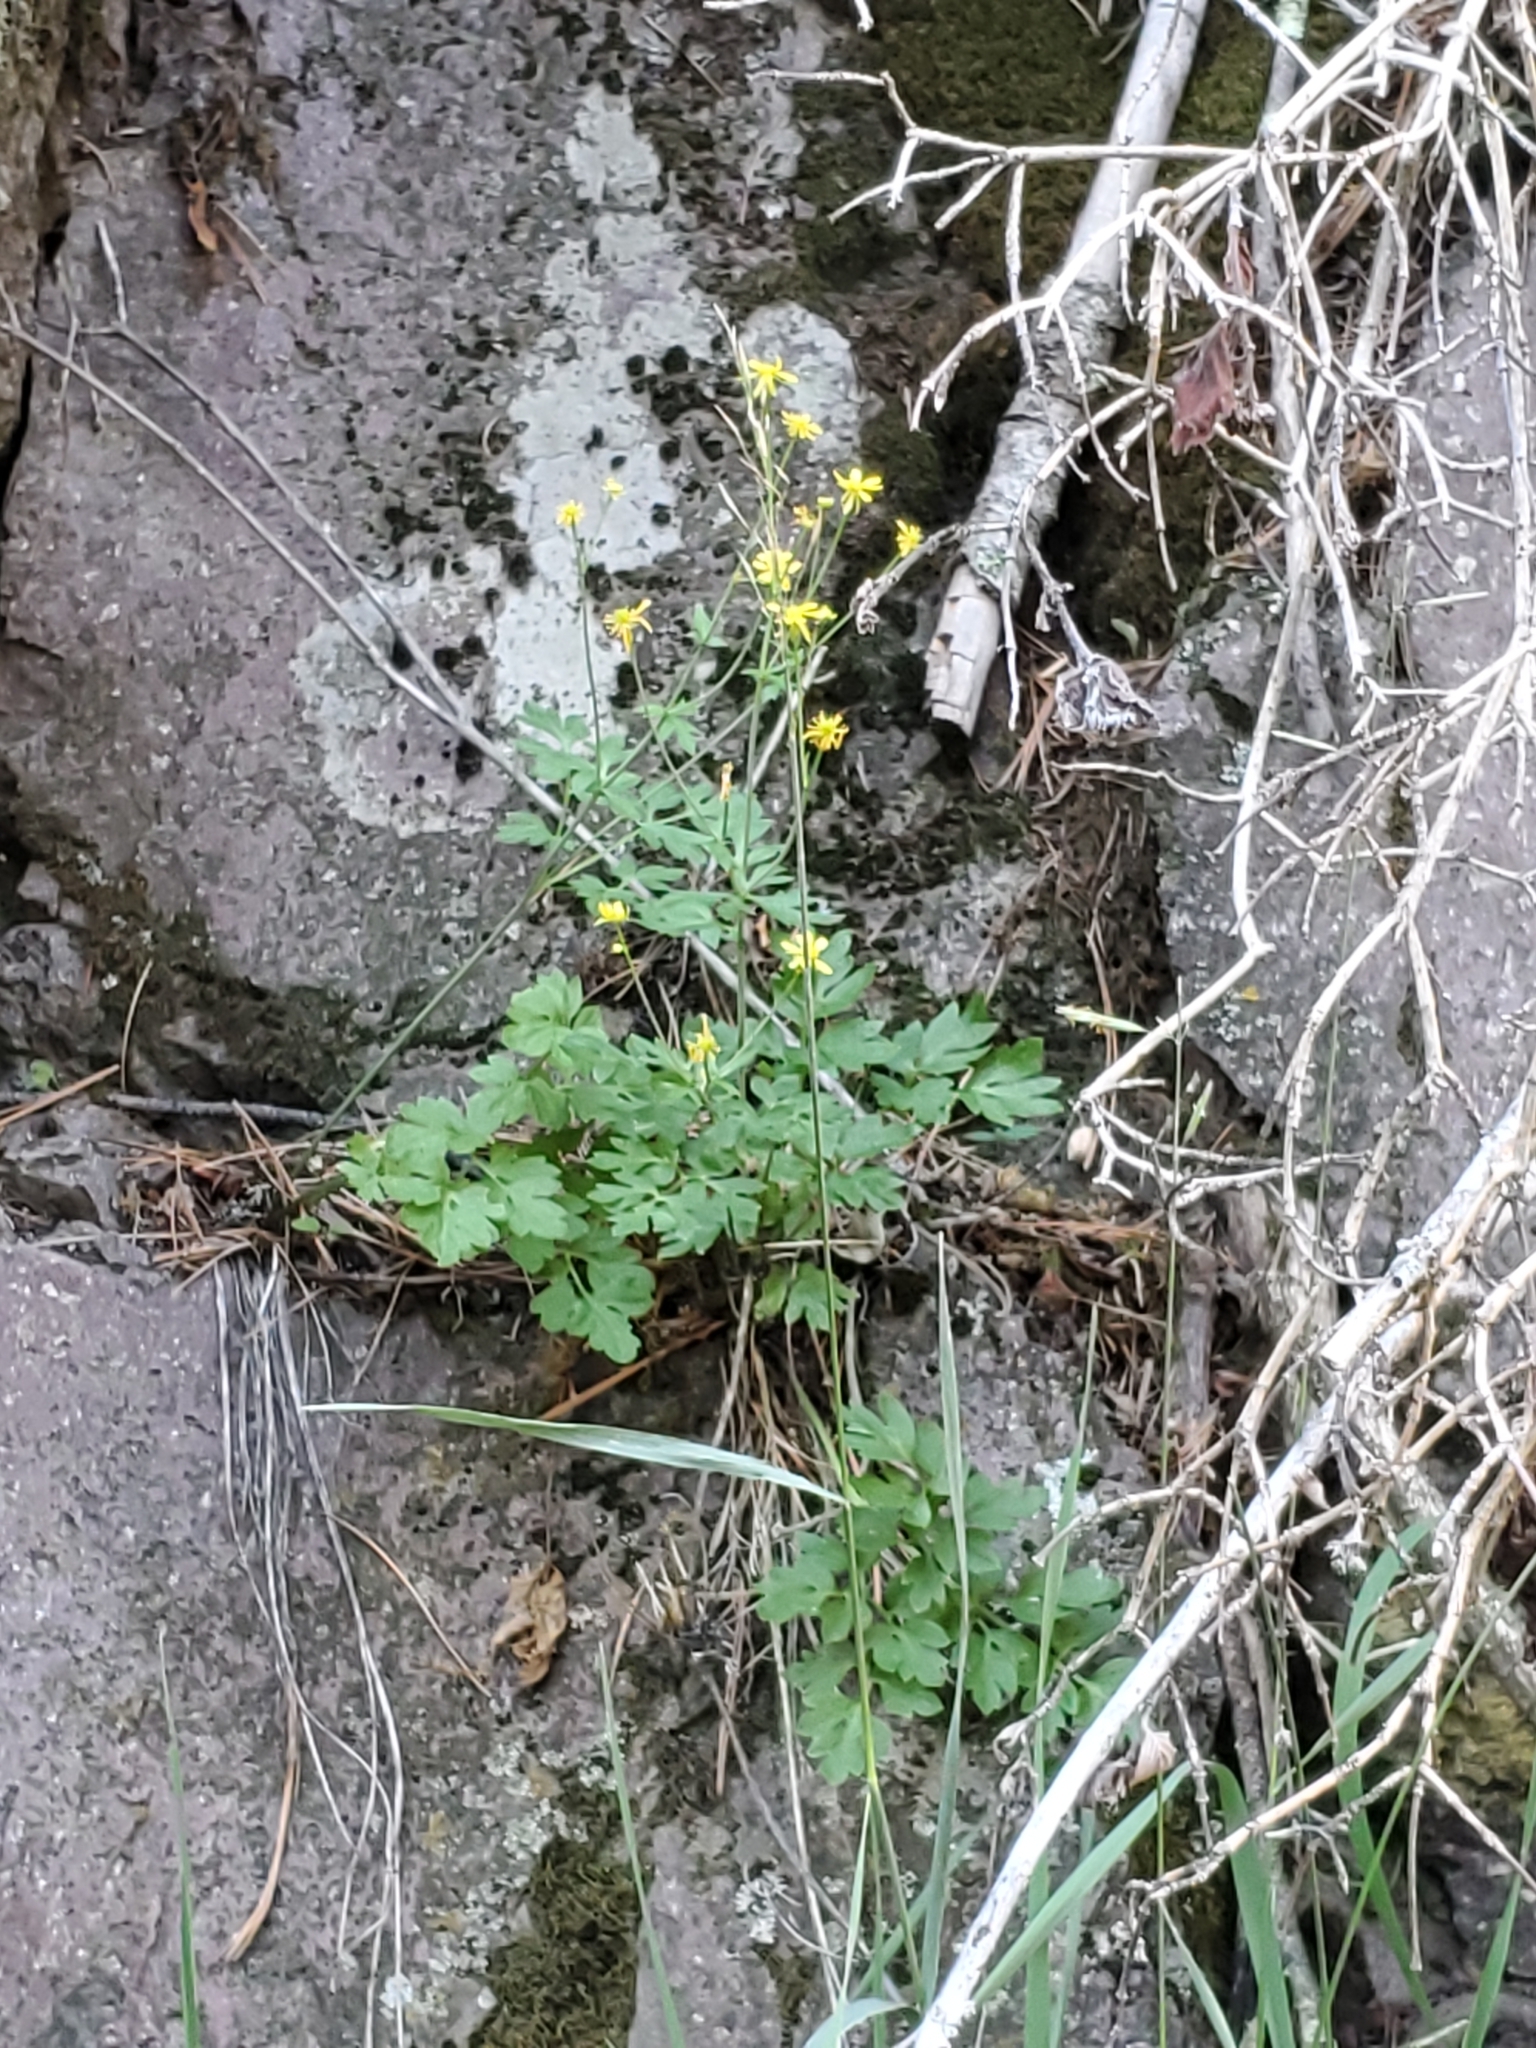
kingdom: Plantae
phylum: Tracheophyta
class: Magnoliopsida
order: Ranunculales
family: Ranunculaceae
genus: Cyrtorhyncha
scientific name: Cyrtorhyncha ranunculina
